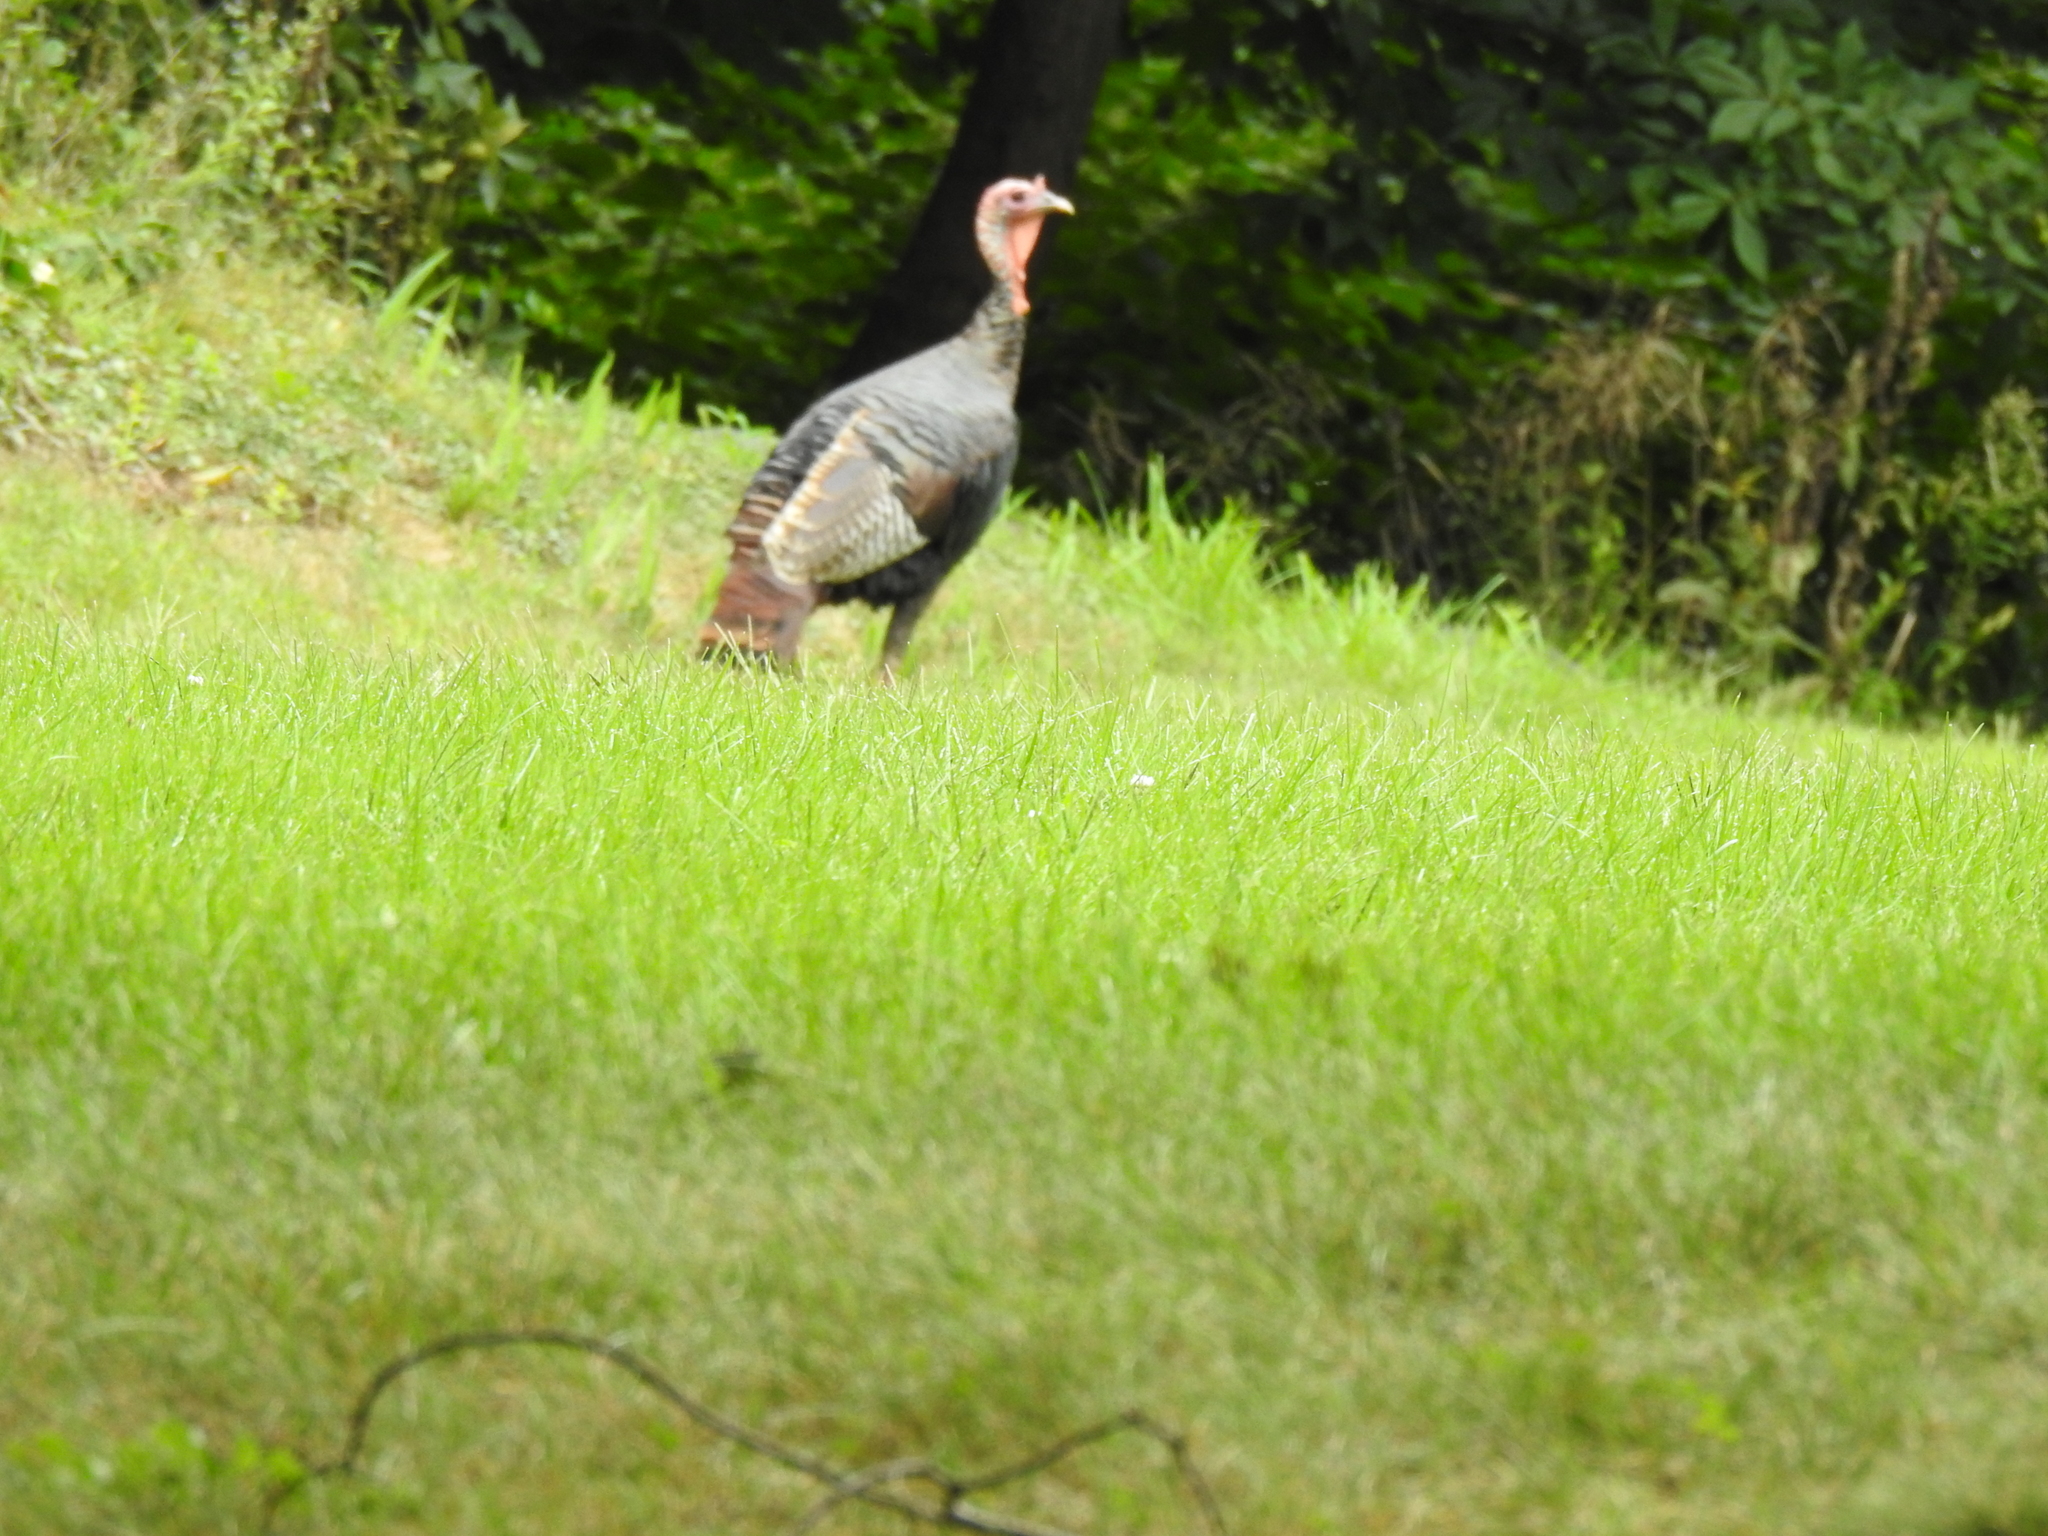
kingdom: Animalia
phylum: Chordata
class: Aves
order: Galliformes
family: Phasianidae
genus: Meleagris
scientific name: Meleagris gallopavo
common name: Wild turkey
